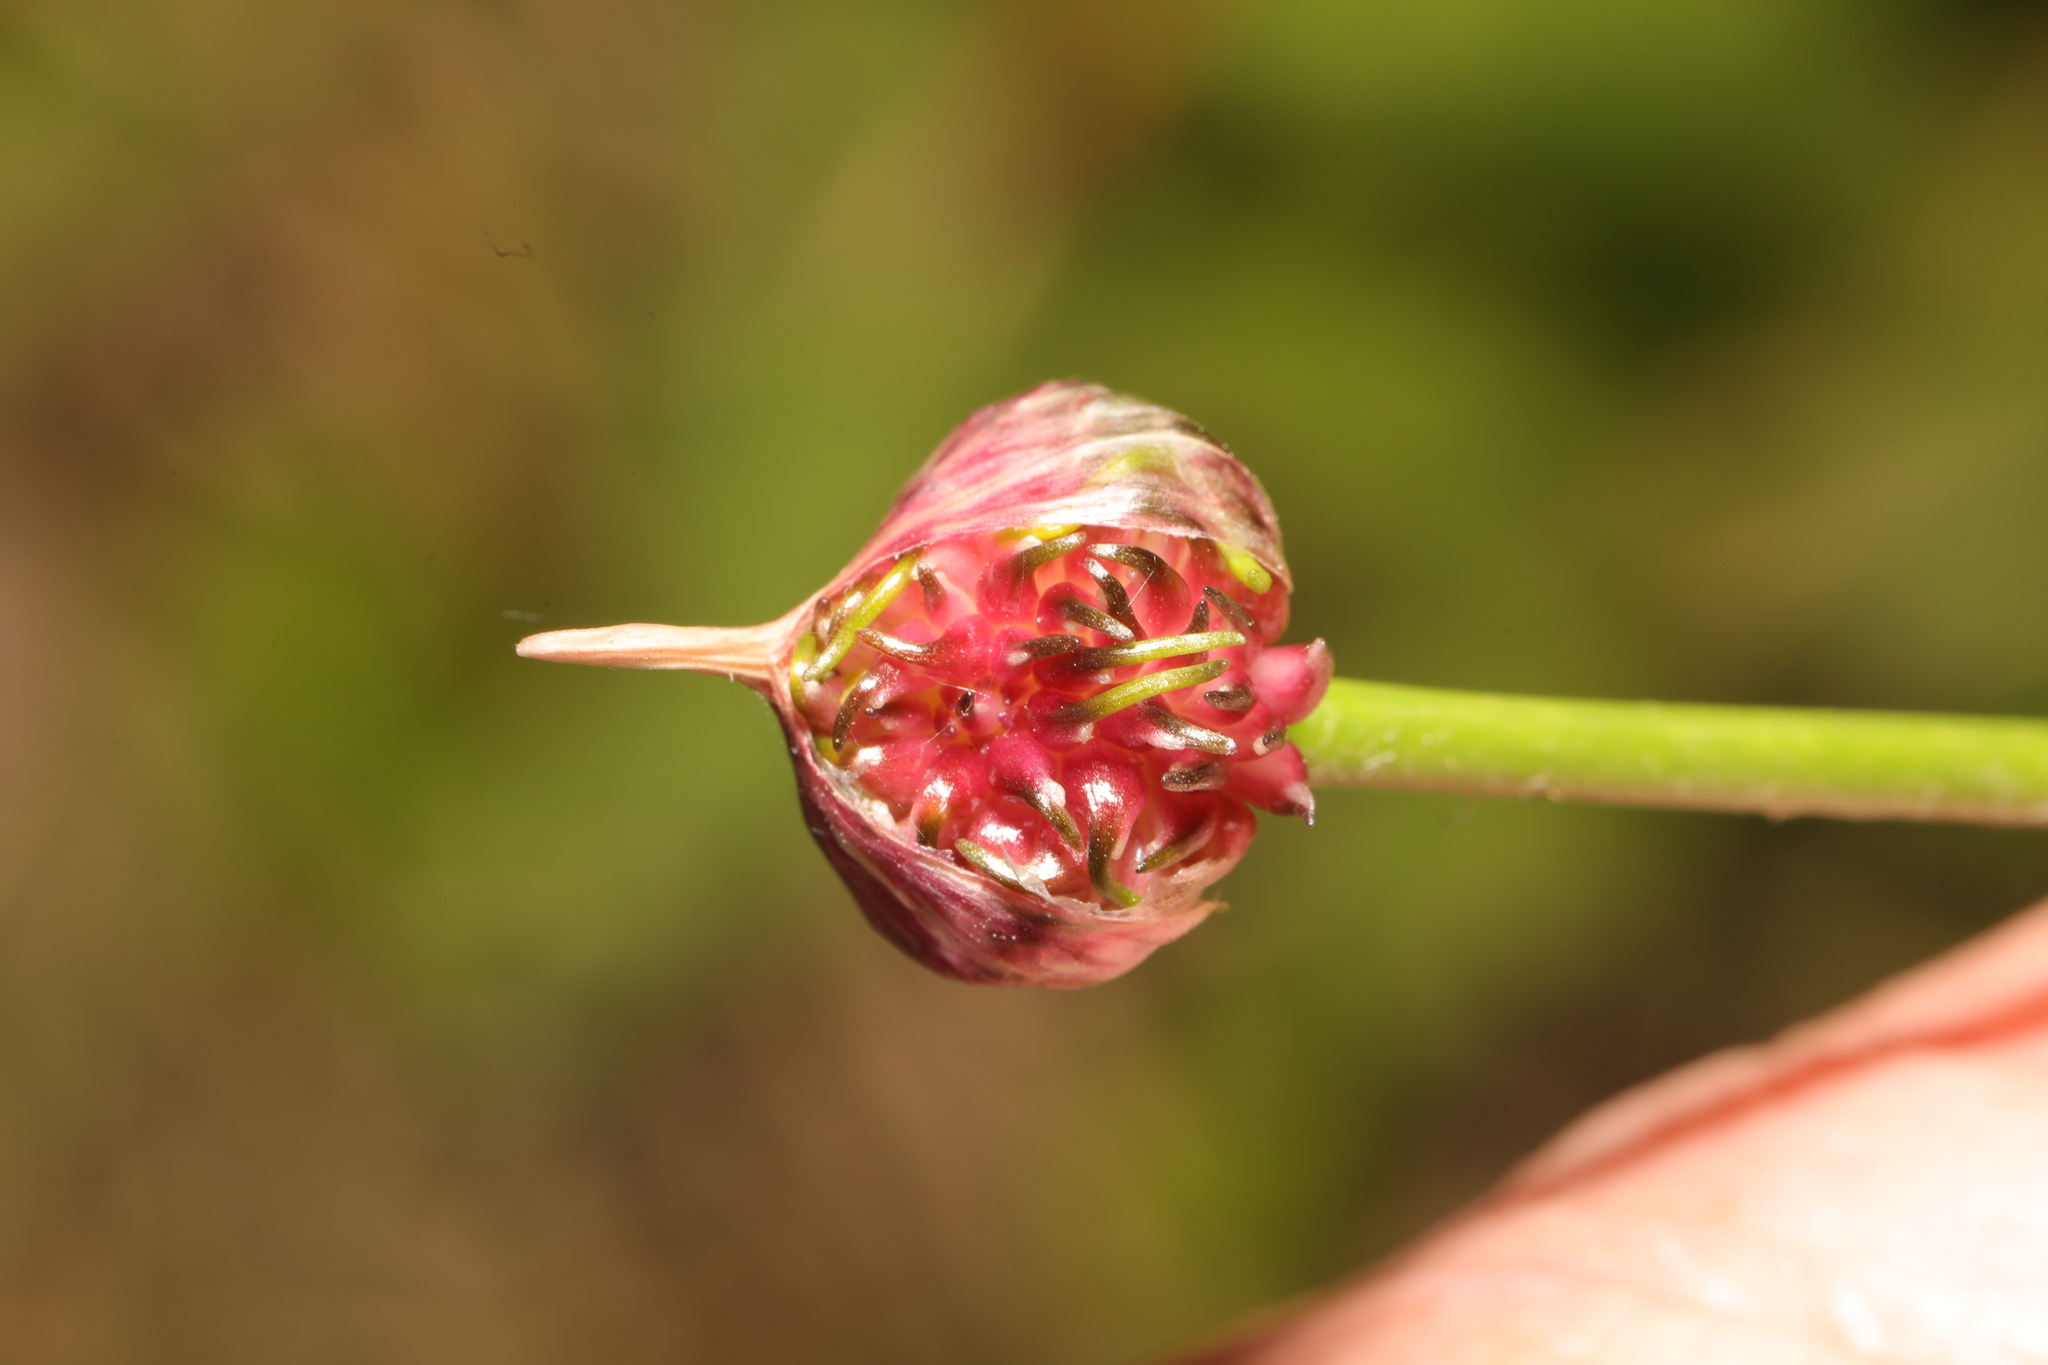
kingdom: Plantae
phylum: Tracheophyta
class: Liliopsida
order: Asparagales
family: Amaryllidaceae
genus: Allium
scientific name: Allium vineale
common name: Crow garlic
